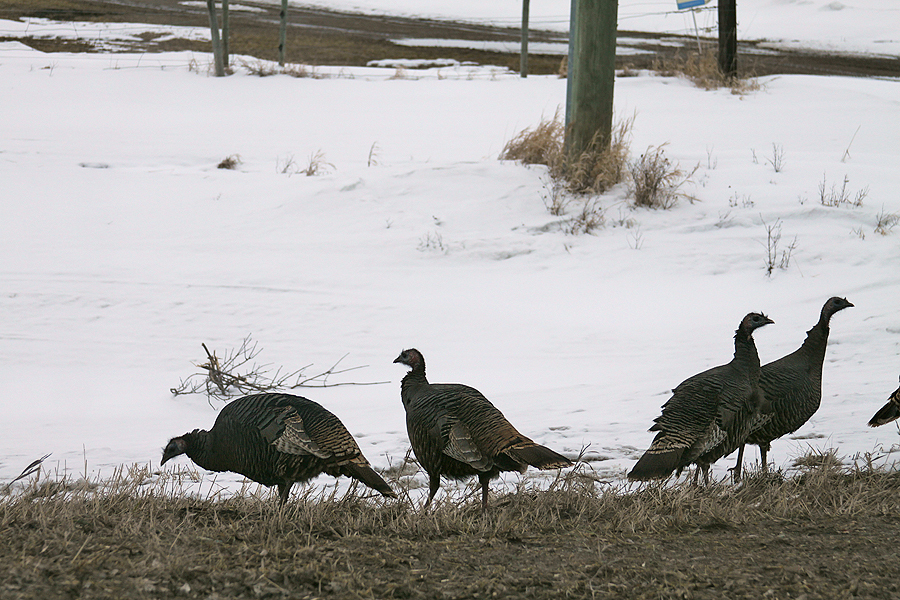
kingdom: Animalia
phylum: Chordata
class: Aves
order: Galliformes
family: Phasianidae
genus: Meleagris
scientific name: Meleagris gallopavo
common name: Wild turkey
